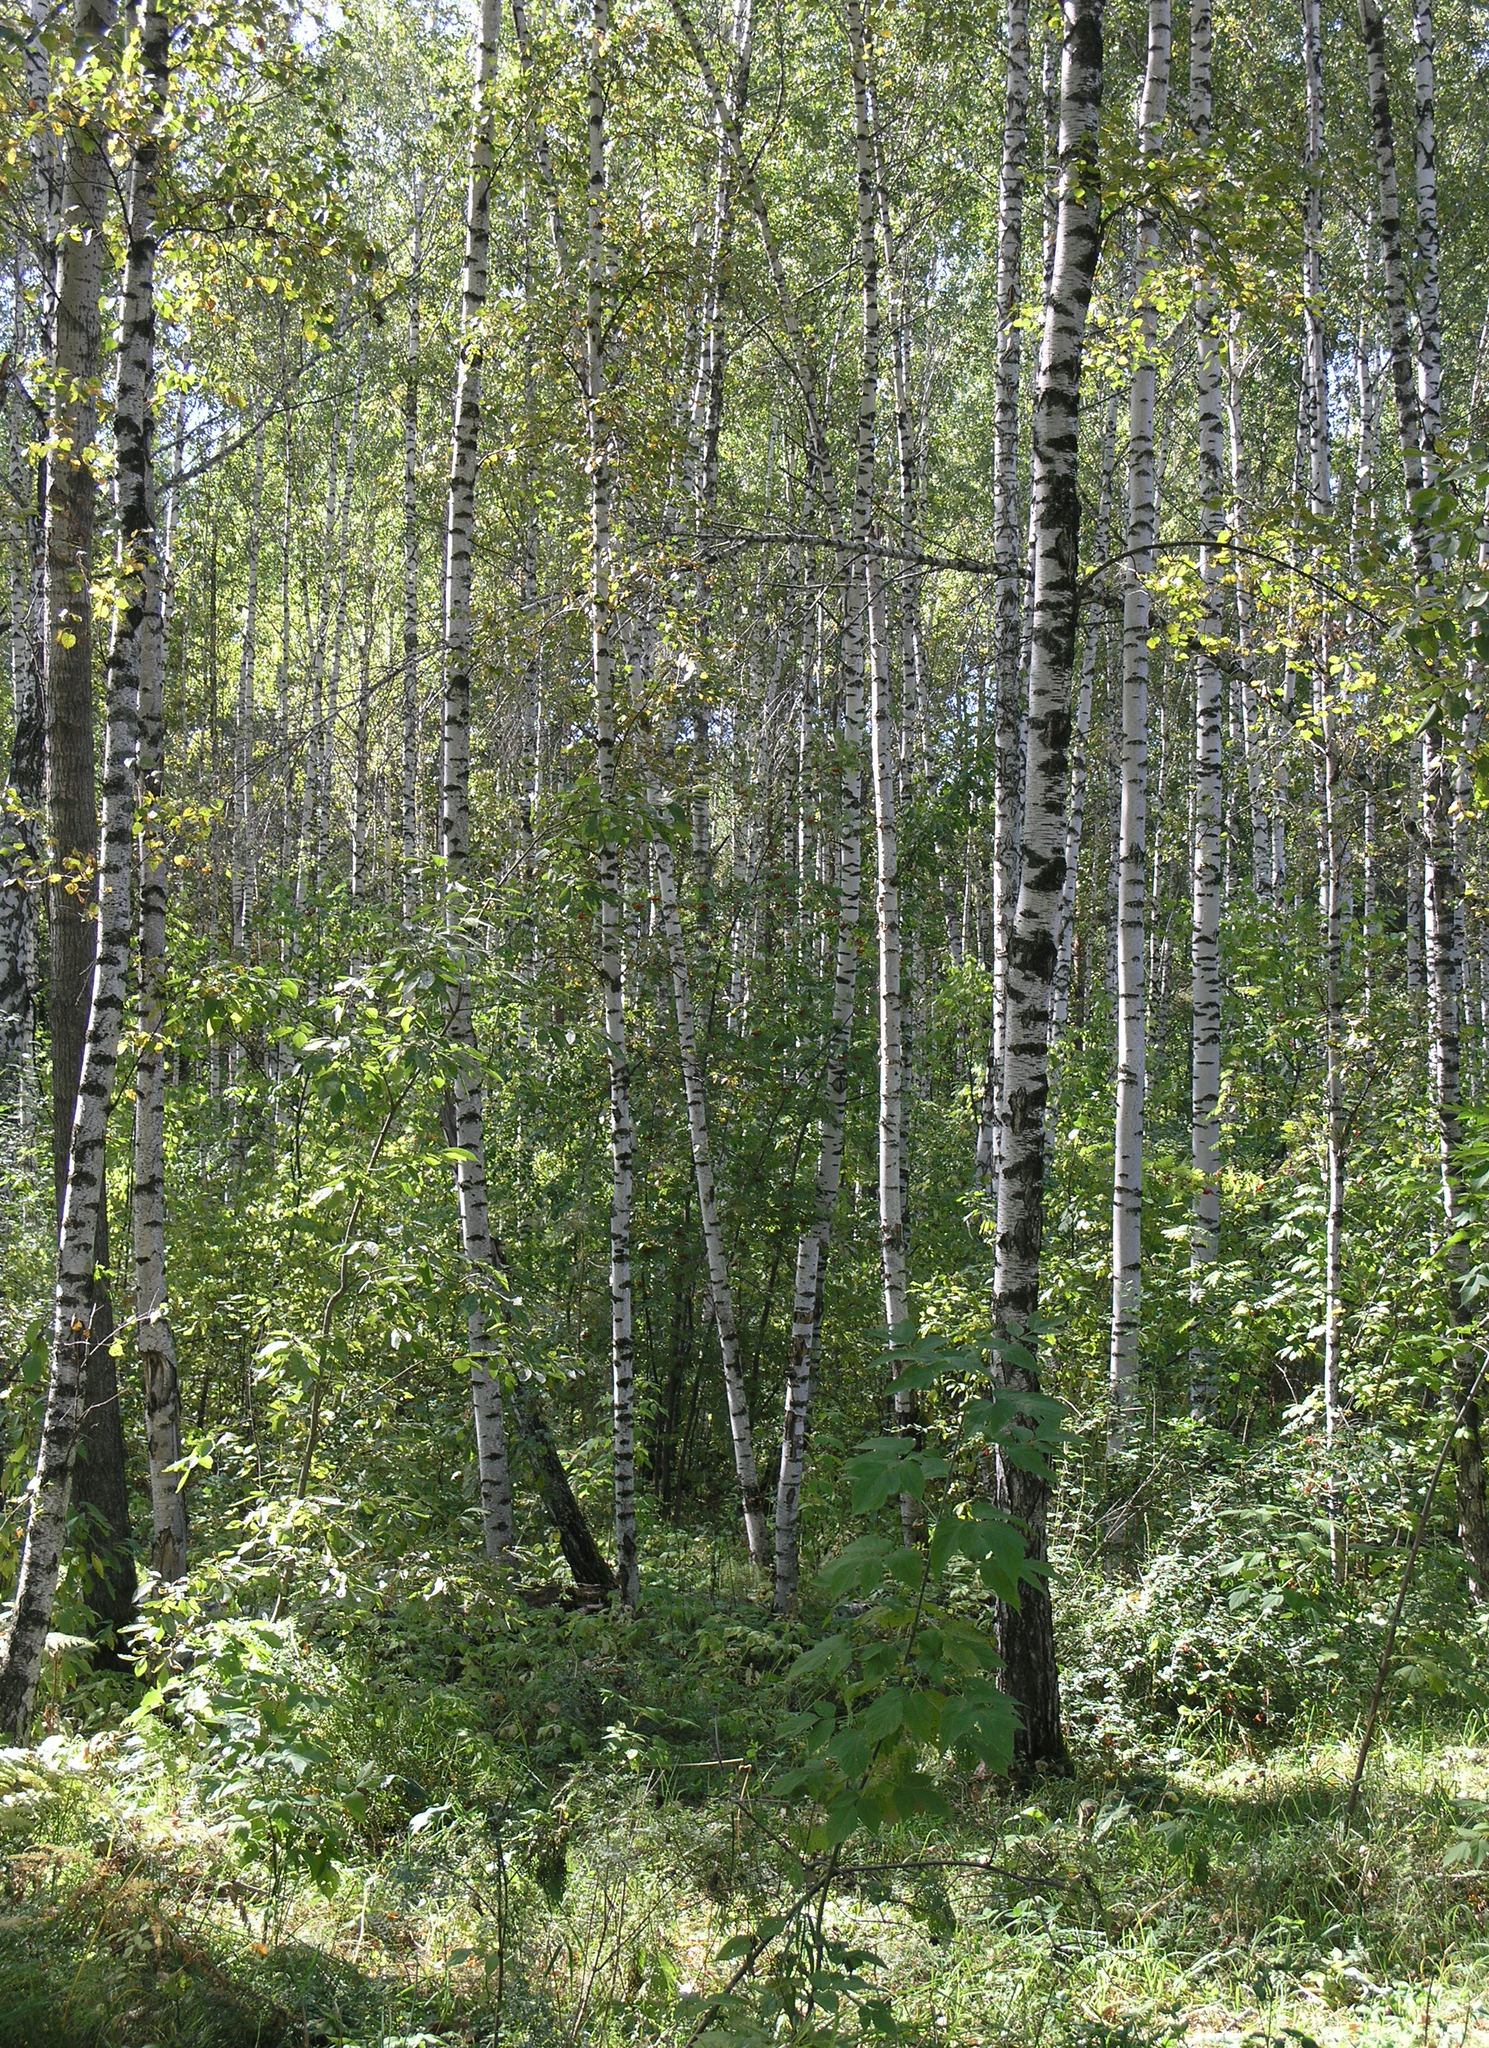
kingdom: Plantae
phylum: Tracheophyta
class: Magnoliopsida
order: Fagales
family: Betulaceae
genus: Betula
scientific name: Betula pendula
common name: Silver birch
